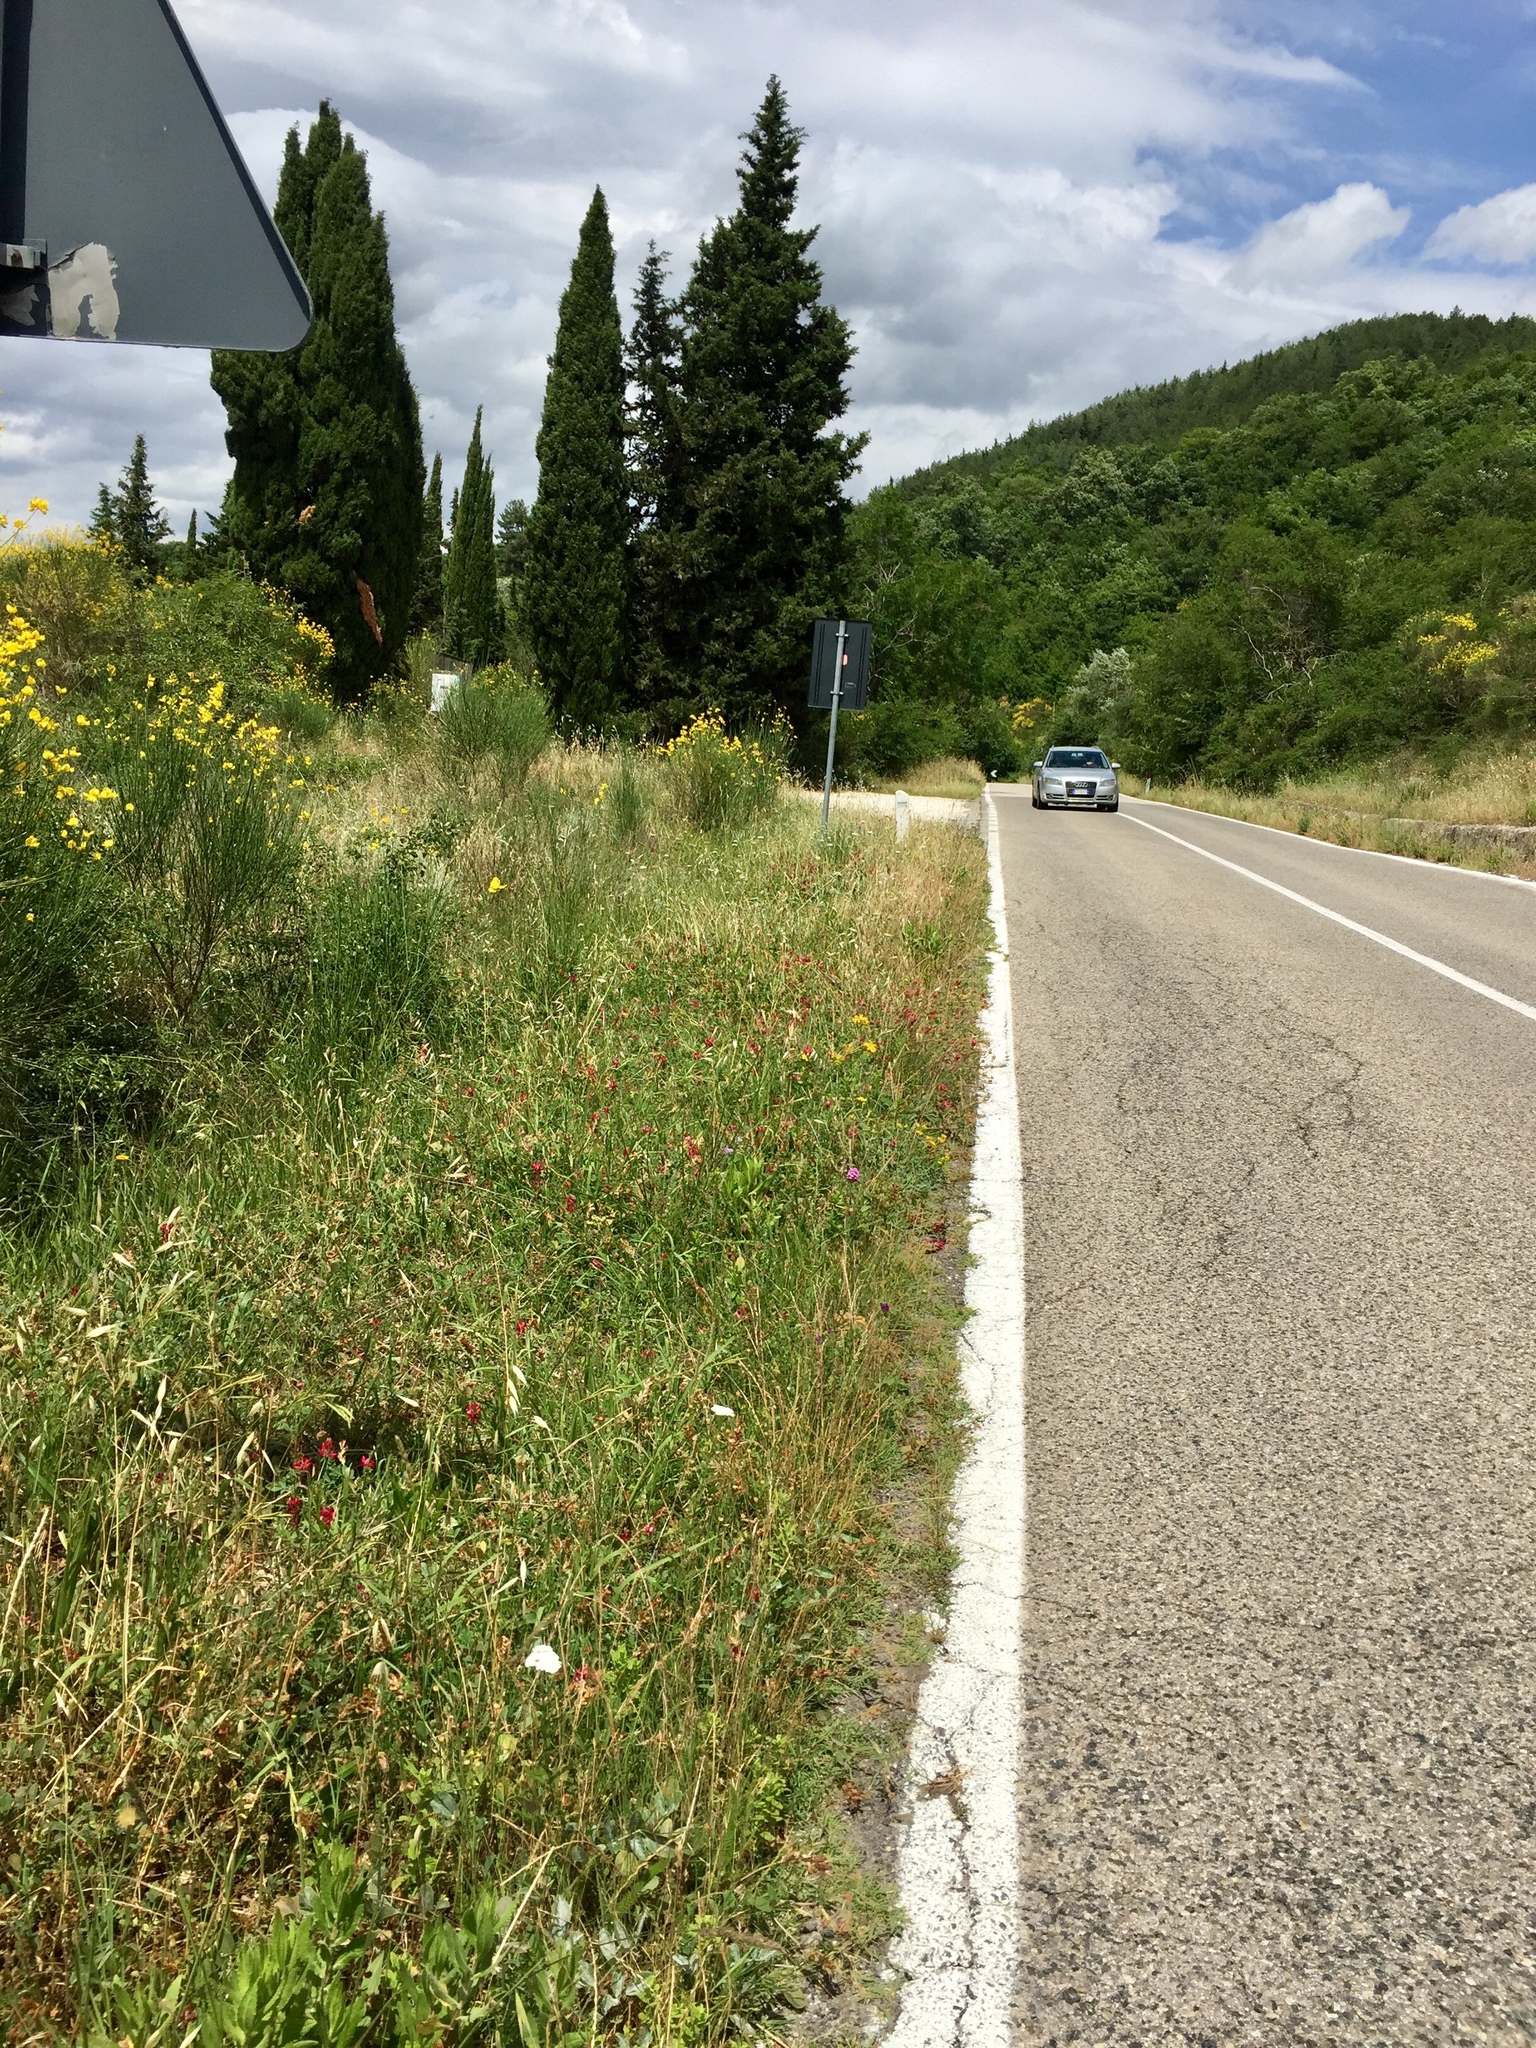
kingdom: Plantae
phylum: Tracheophyta
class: Liliopsida
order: Asparagales
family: Orchidaceae
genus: Anacamptis
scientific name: Anacamptis pyramidalis
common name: Pyramidal orchid
